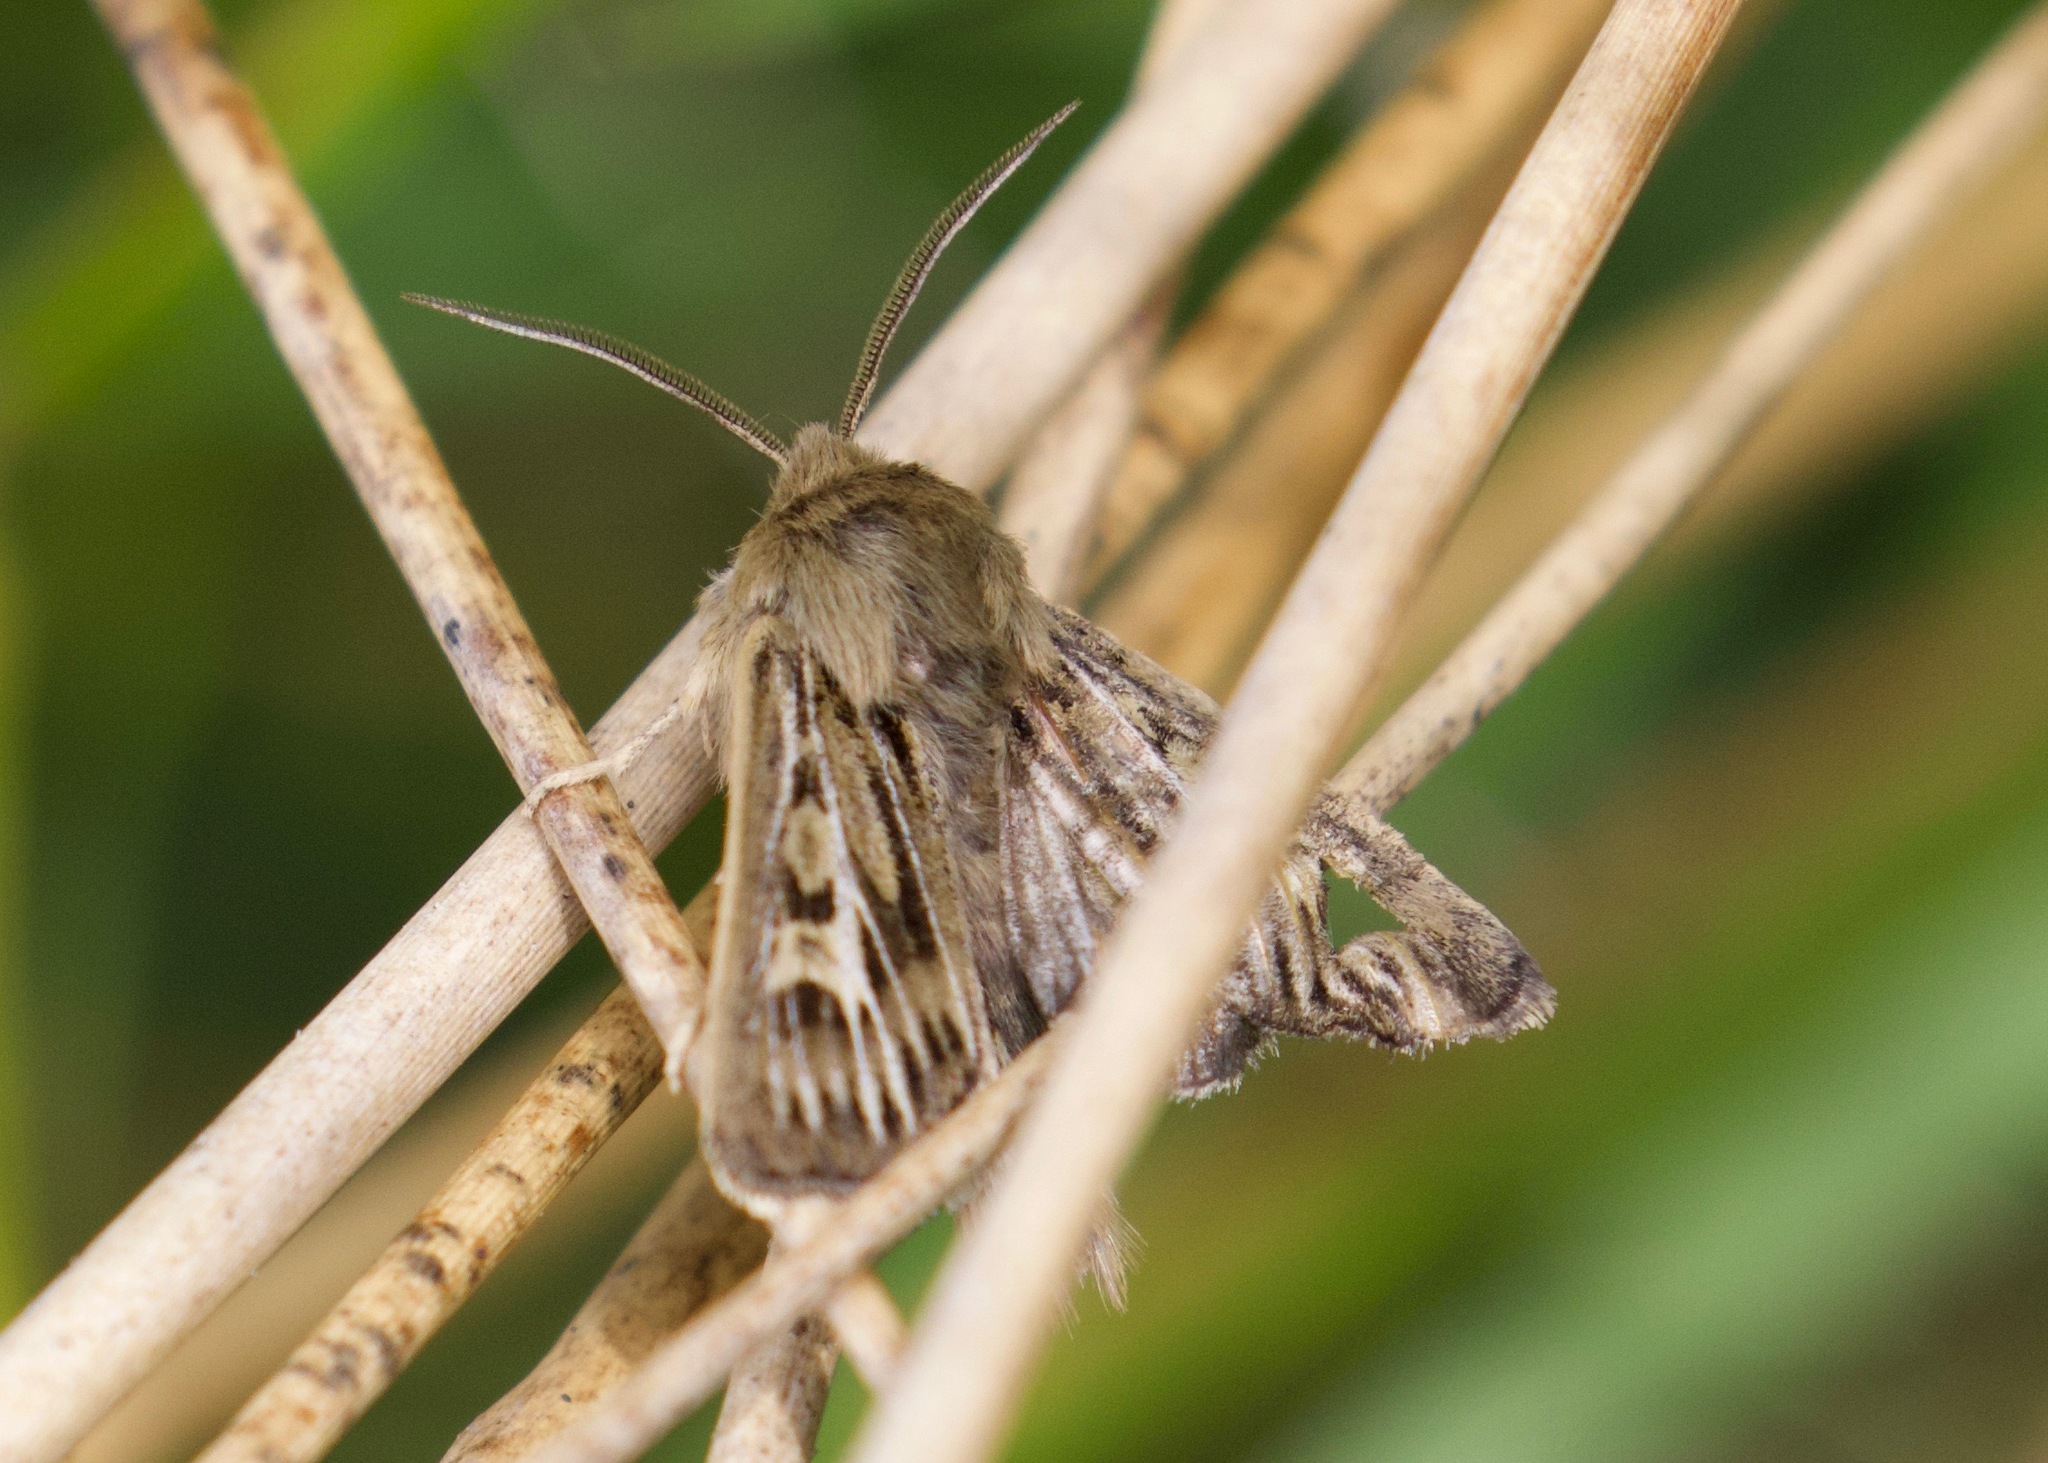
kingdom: Animalia
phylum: Arthropoda
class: Insecta
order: Lepidoptera
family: Noctuidae
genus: Cerapteryx
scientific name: Cerapteryx graminis
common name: Antler moth
